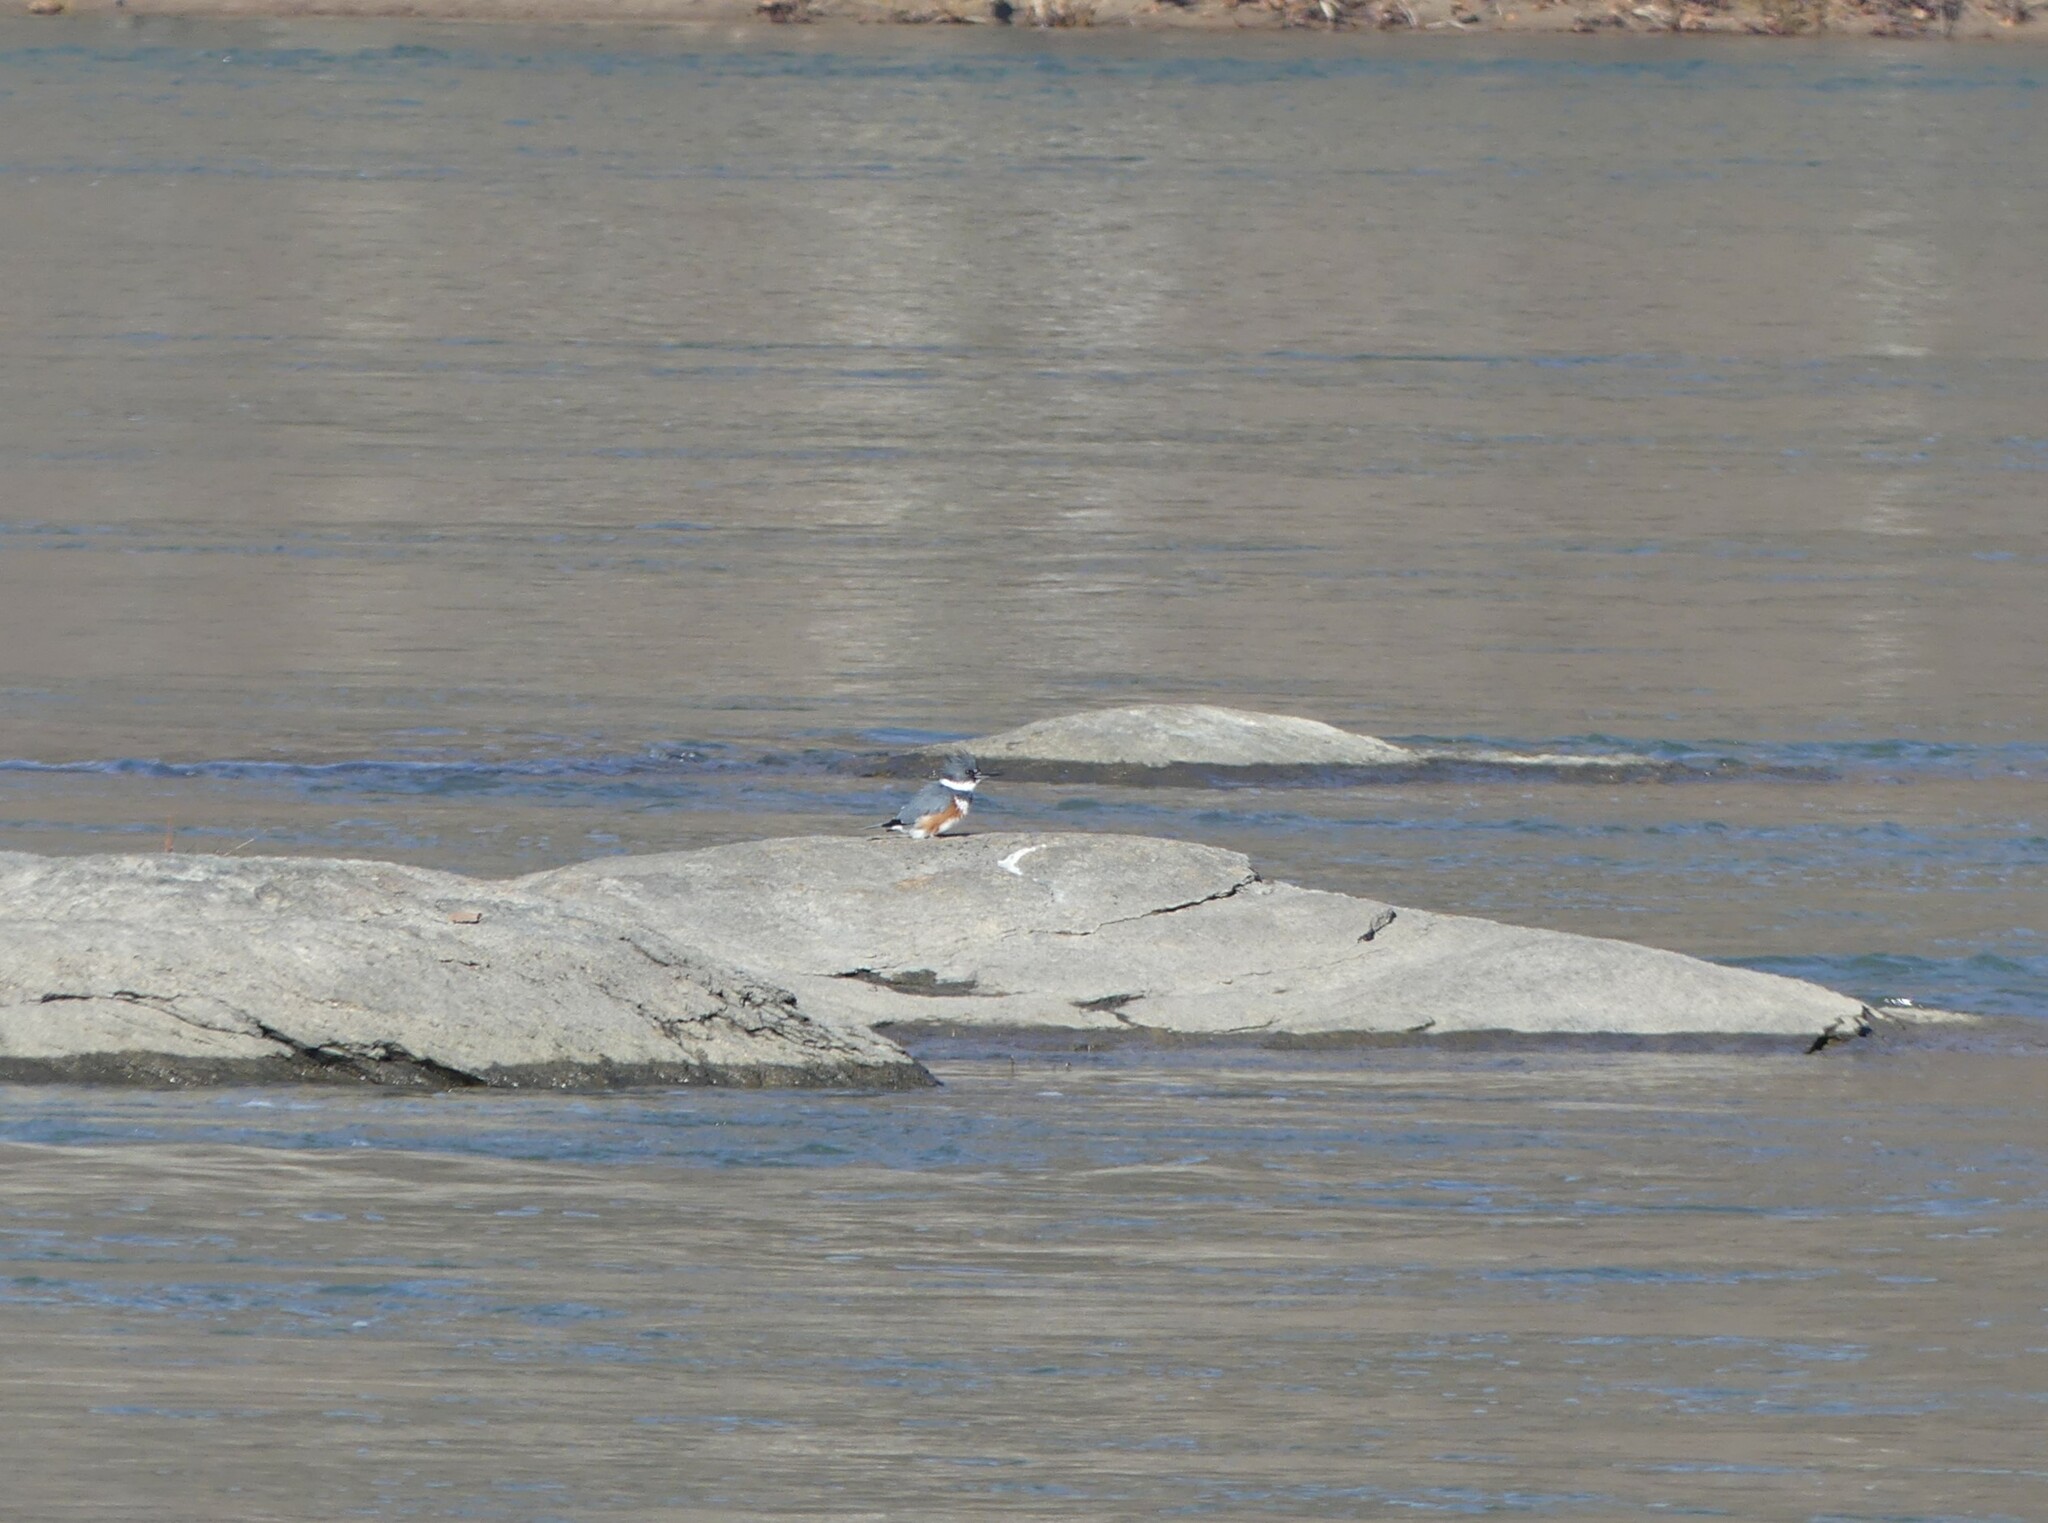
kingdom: Animalia
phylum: Chordata
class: Aves
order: Coraciiformes
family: Alcedinidae
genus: Megaceryle
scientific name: Megaceryle alcyon
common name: Belted kingfisher
